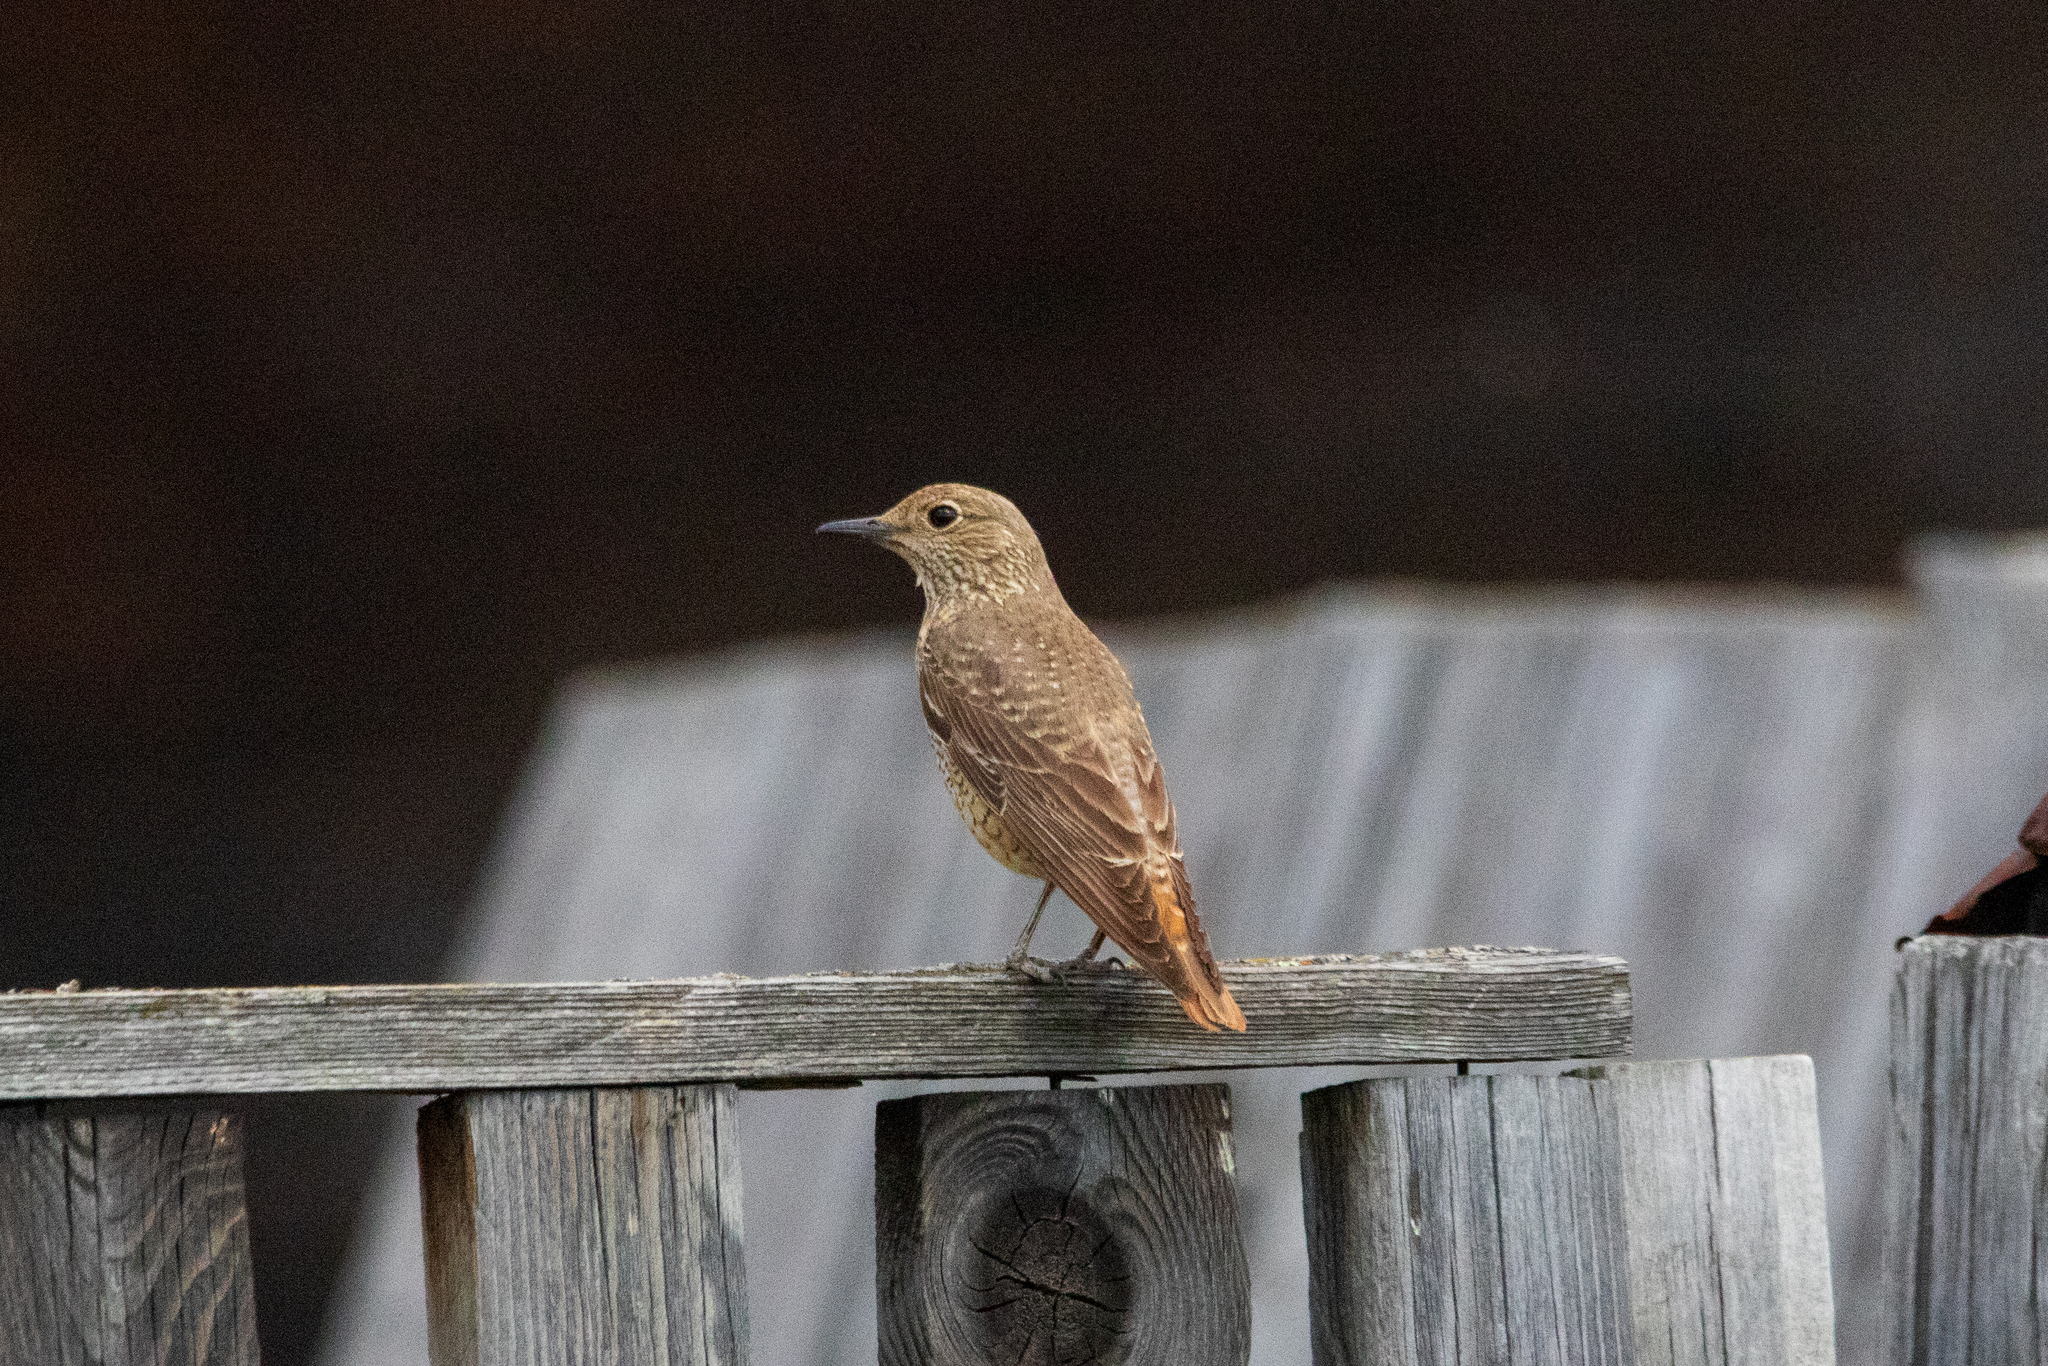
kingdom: Animalia
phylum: Chordata
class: Aves
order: Passeriformes
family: Muscicapidae
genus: Monticola
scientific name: Monticola saxatilis
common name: Rufous-tailed rock thrush
